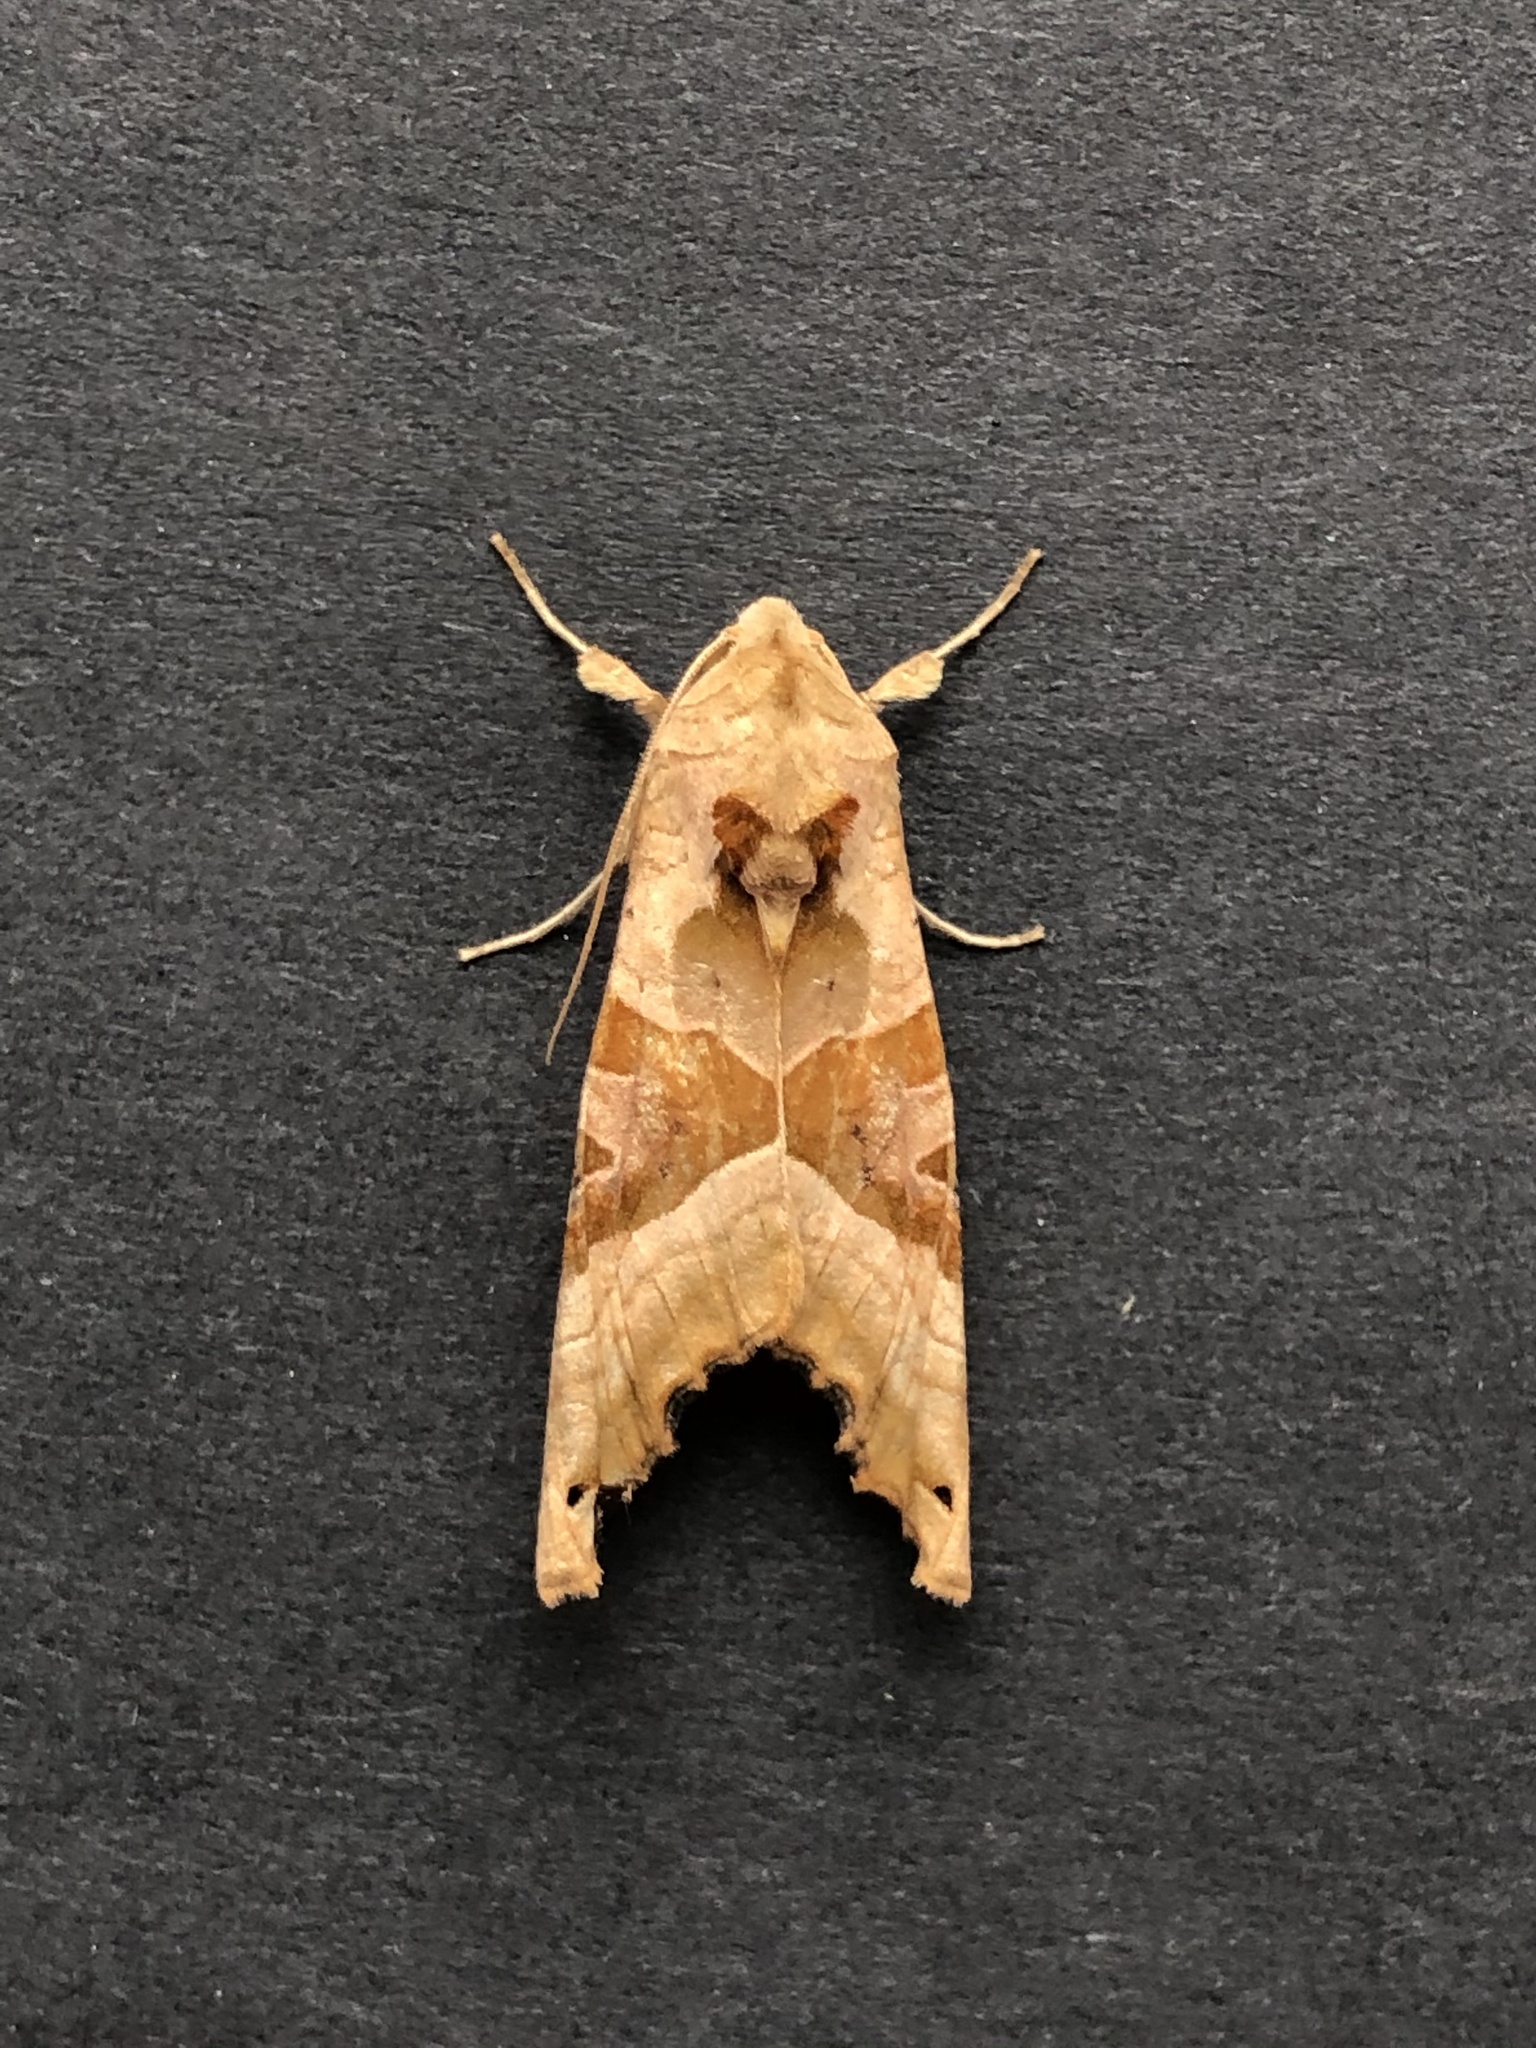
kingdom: Animalia
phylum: Arthropoda
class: Insecta
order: Lepidoptera
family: Noctuidae
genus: Phlogophora
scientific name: Phlogophora meticulosa
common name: Angle shades
